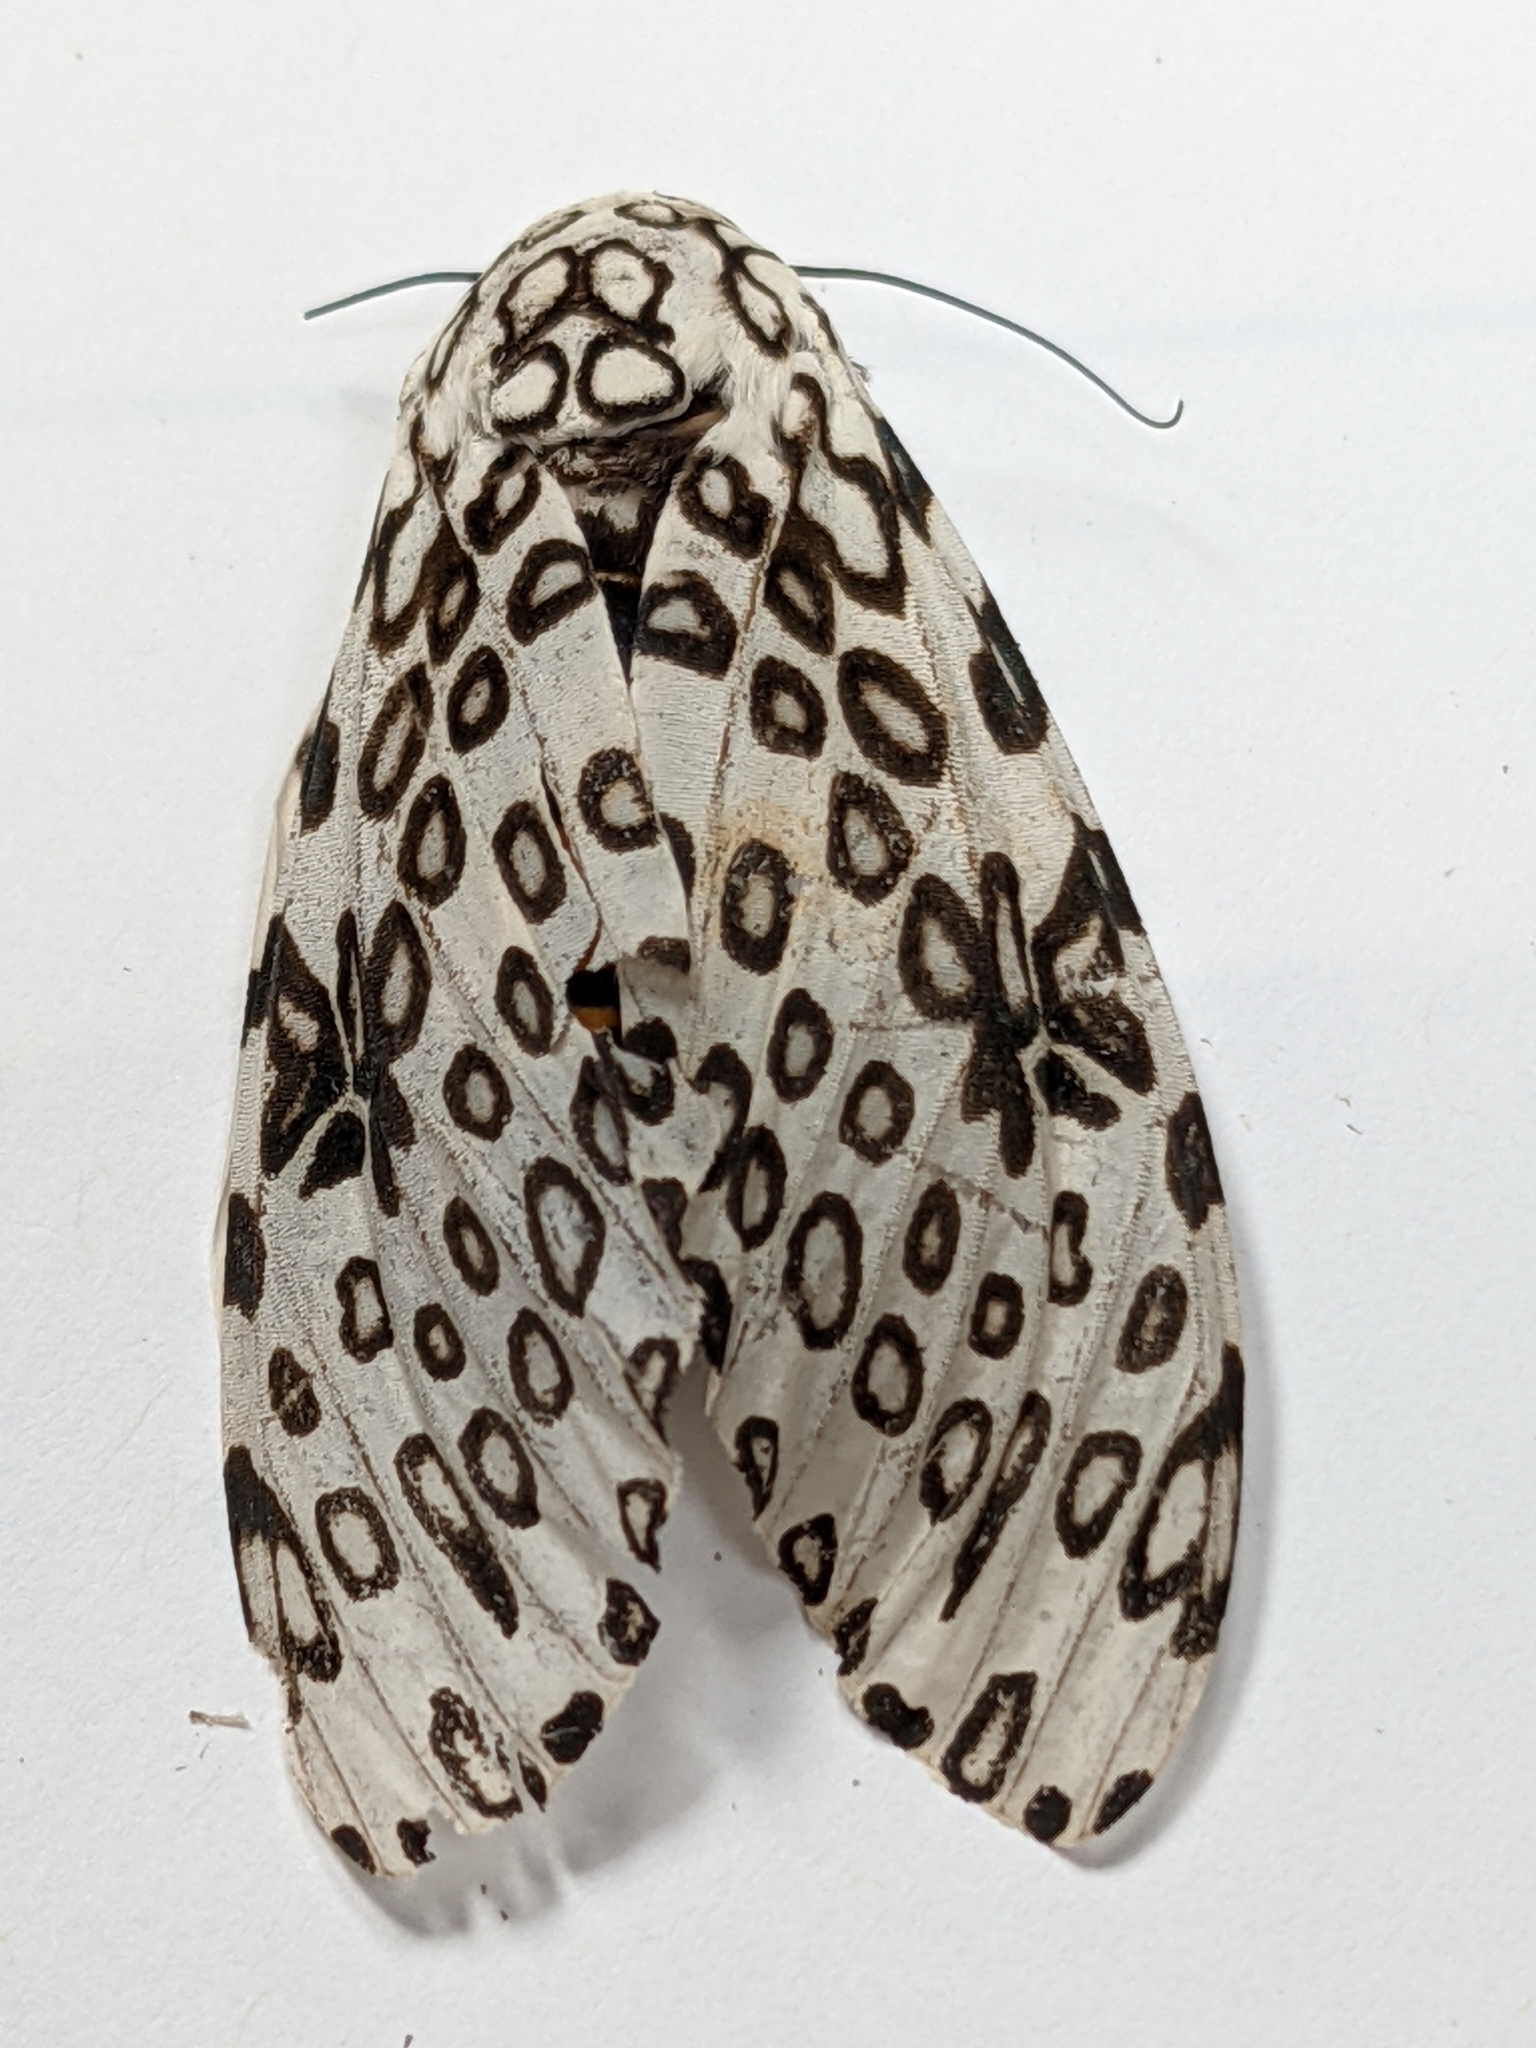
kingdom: Animalia
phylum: Arthropoda
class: Insecta
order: Lepidoptera
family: Erebidae
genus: Hypercompe
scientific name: Hypercompe scribonia
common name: Giant leopard moth
